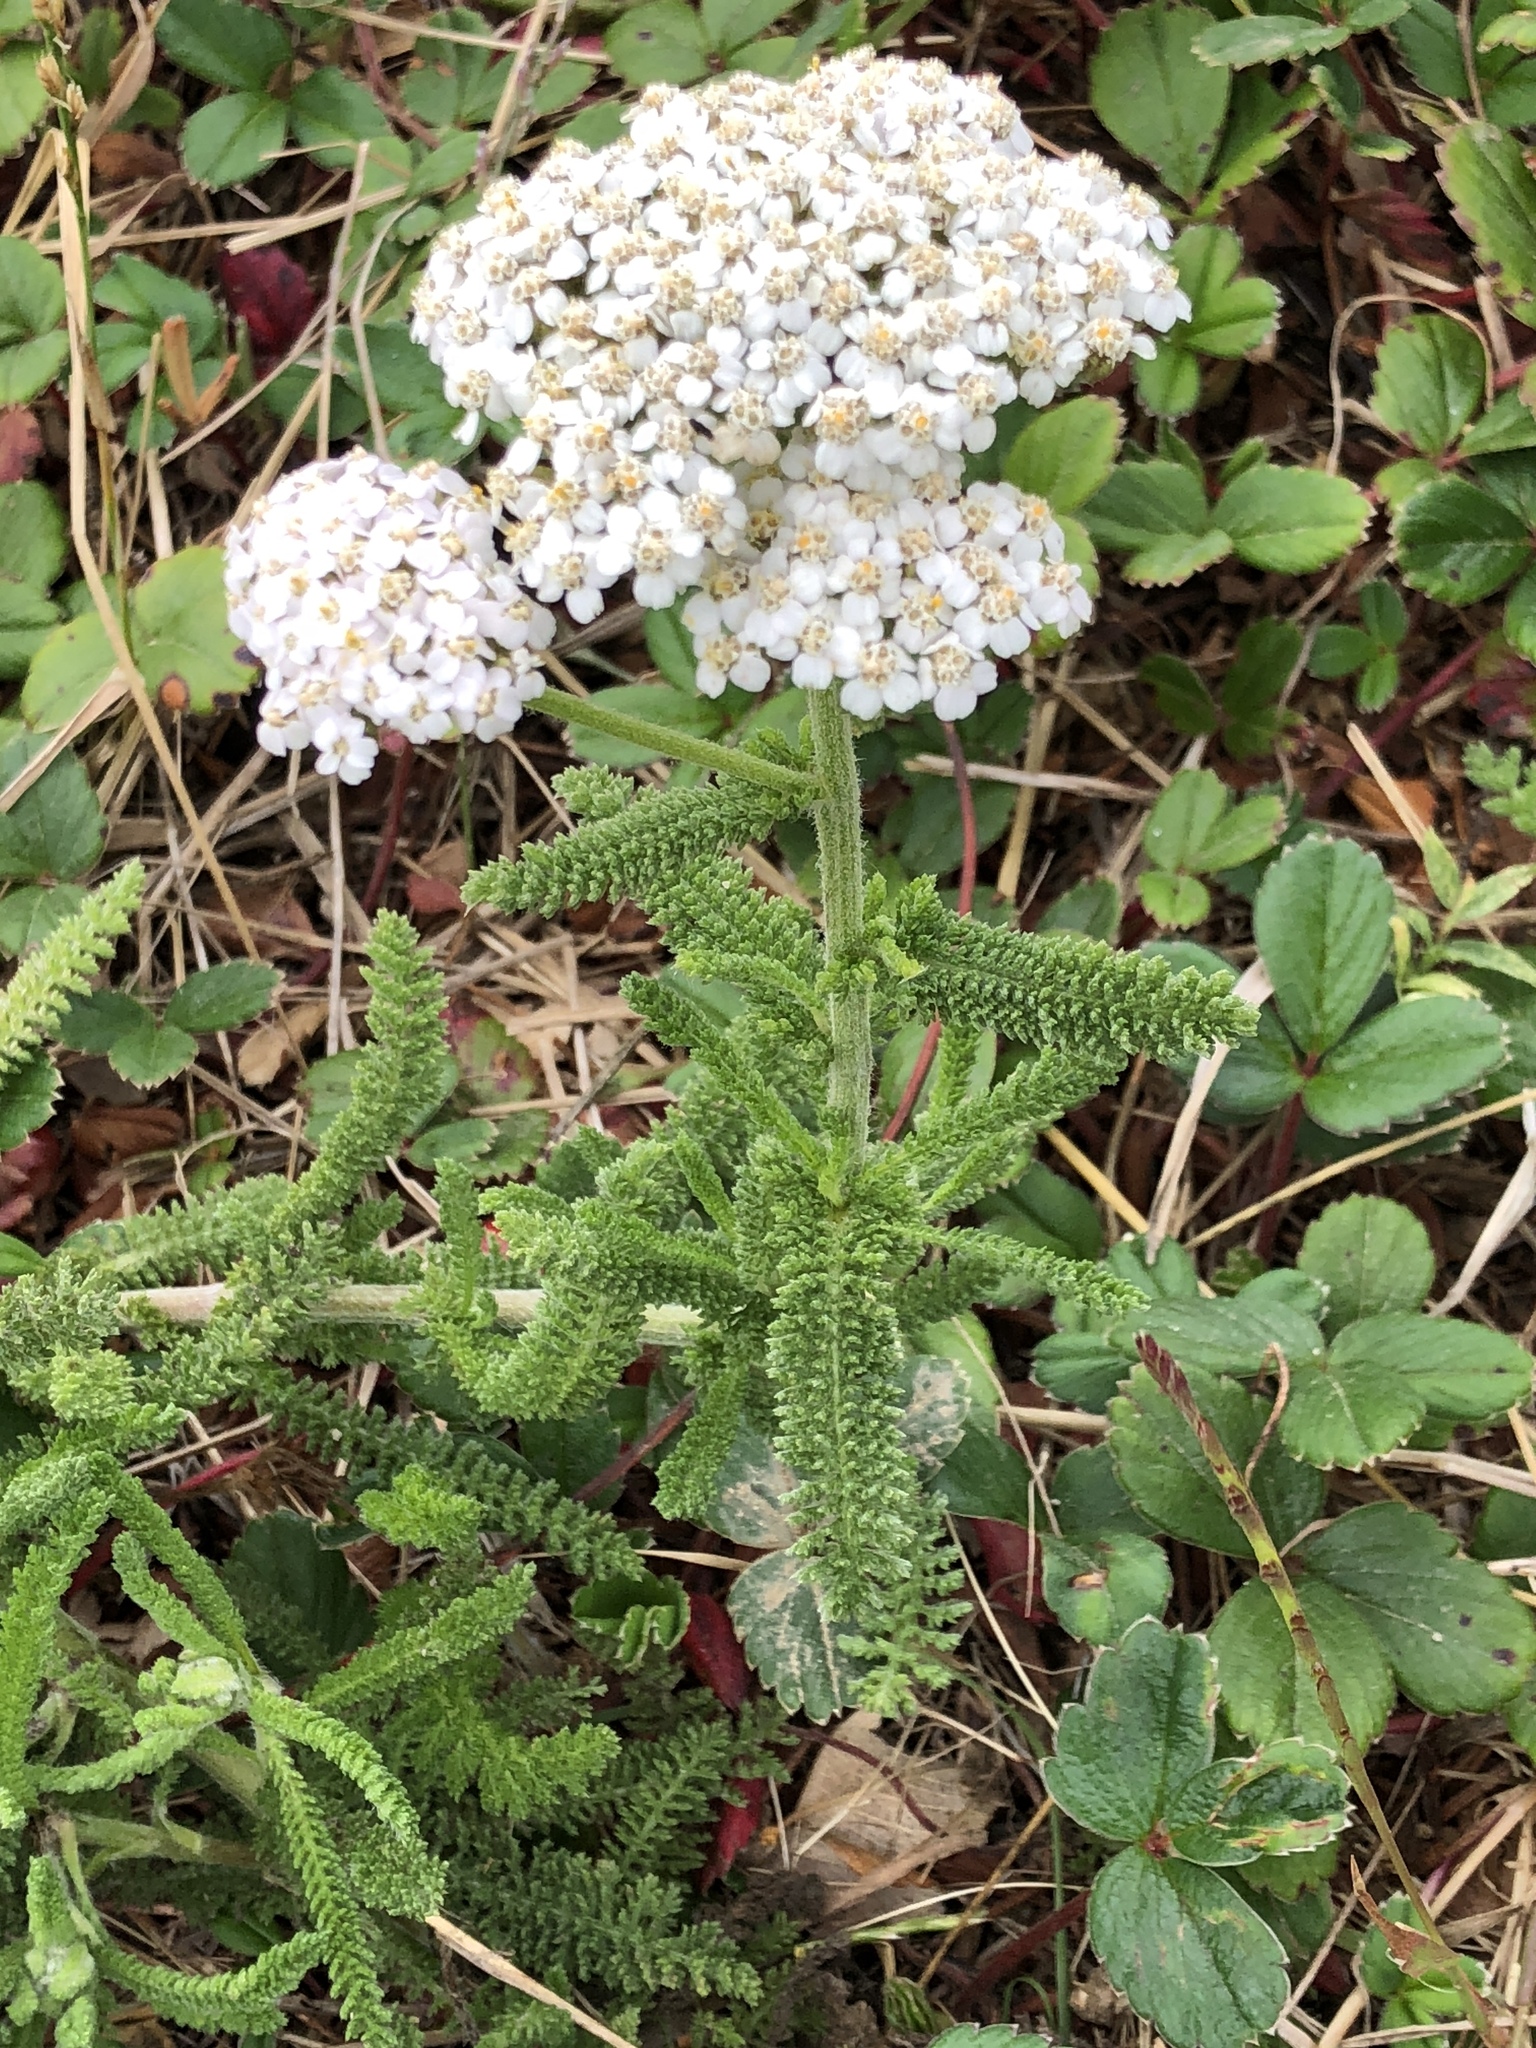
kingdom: Plantae
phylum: Tracheophyta
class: Magnoliopsida
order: Asterales
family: Asteraceae
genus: Achillea
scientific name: Achillea millefolium
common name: Yarrow
